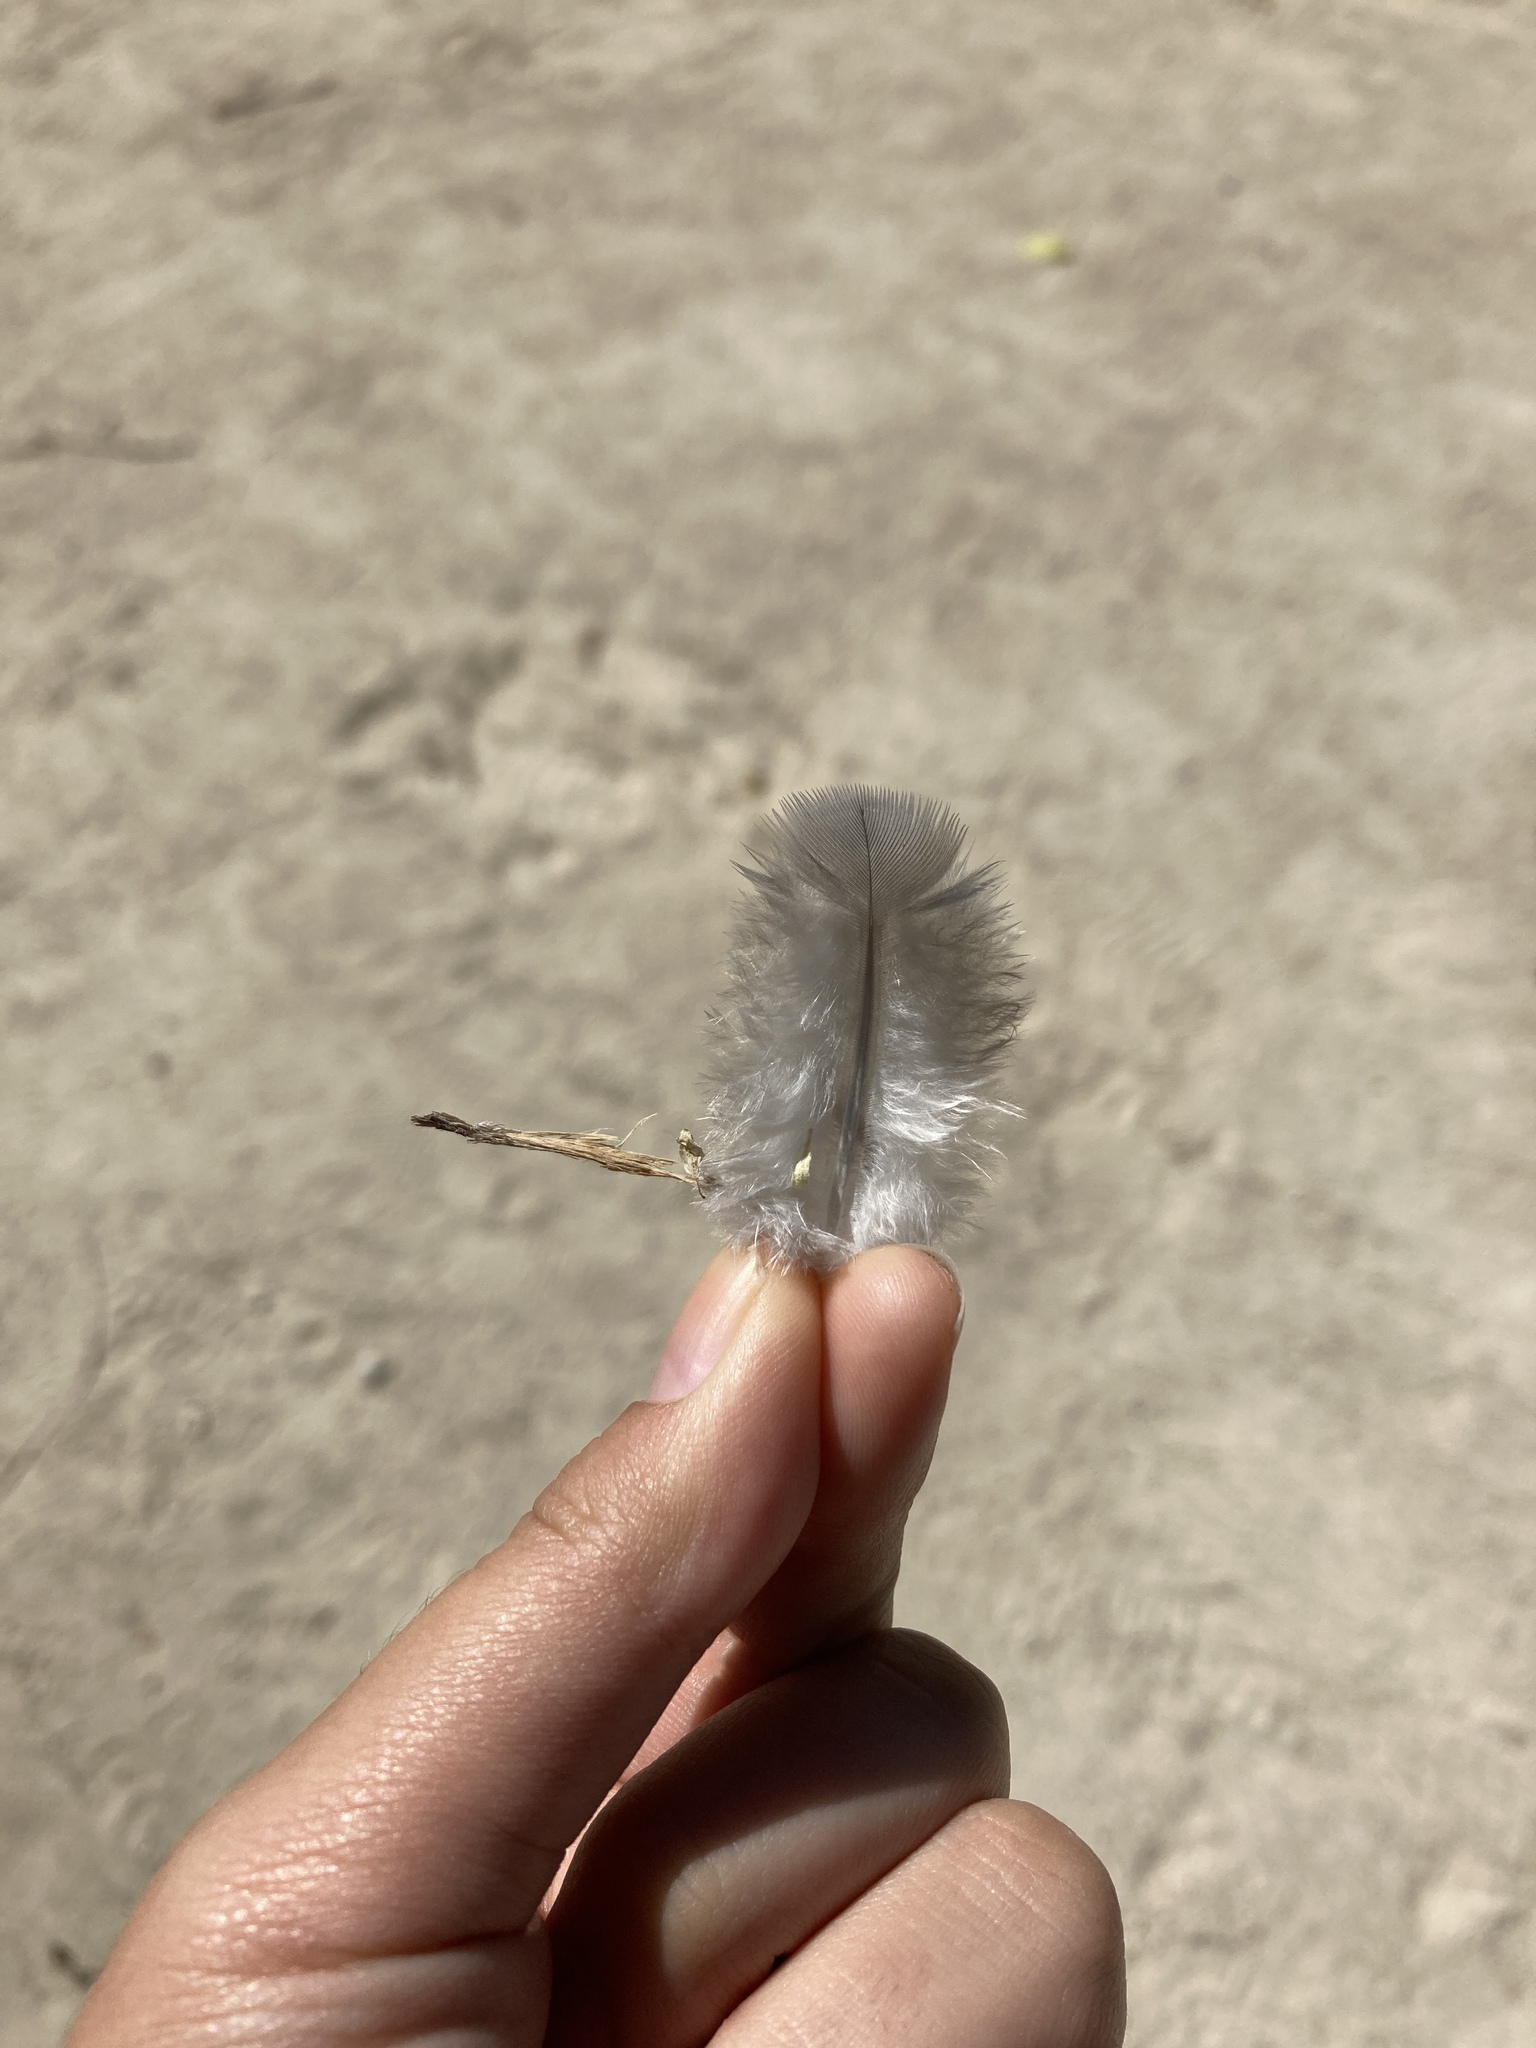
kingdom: Animalia
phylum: Chordata
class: Aves
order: Columbiformes
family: Columbidae
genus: Columba
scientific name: Columba palumbus
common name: Common wood pigeon
